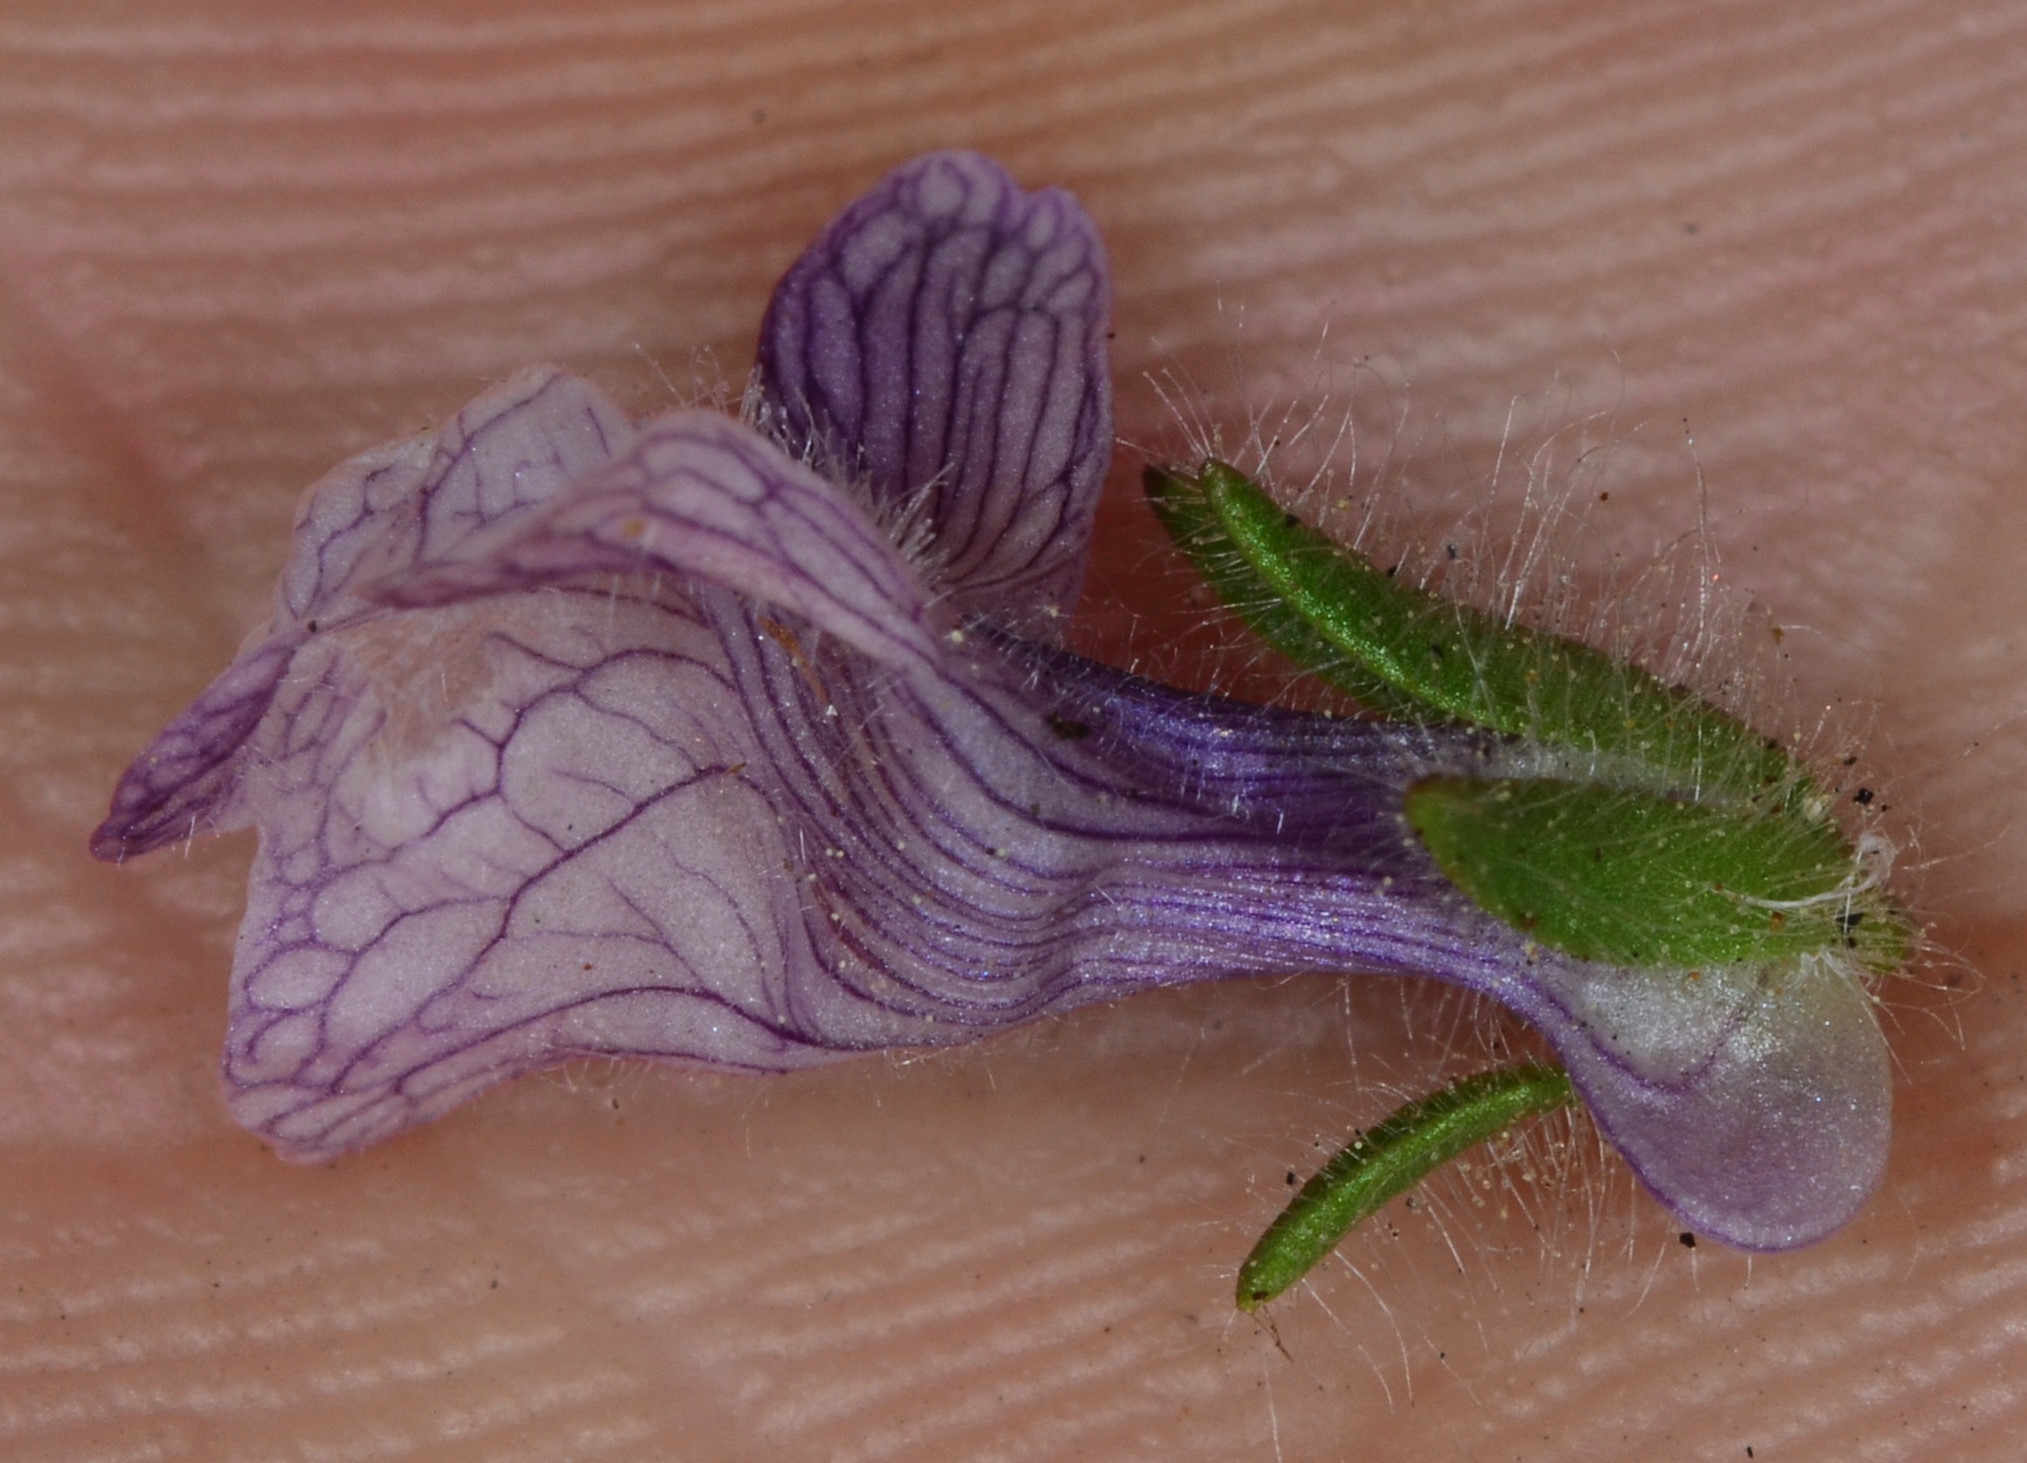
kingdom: Plantae
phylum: Tracheophyta
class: Magnoliopsida
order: Lamiales
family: Plantaginaceae
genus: Sairocarpus
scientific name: Sairocarpus cornutus
